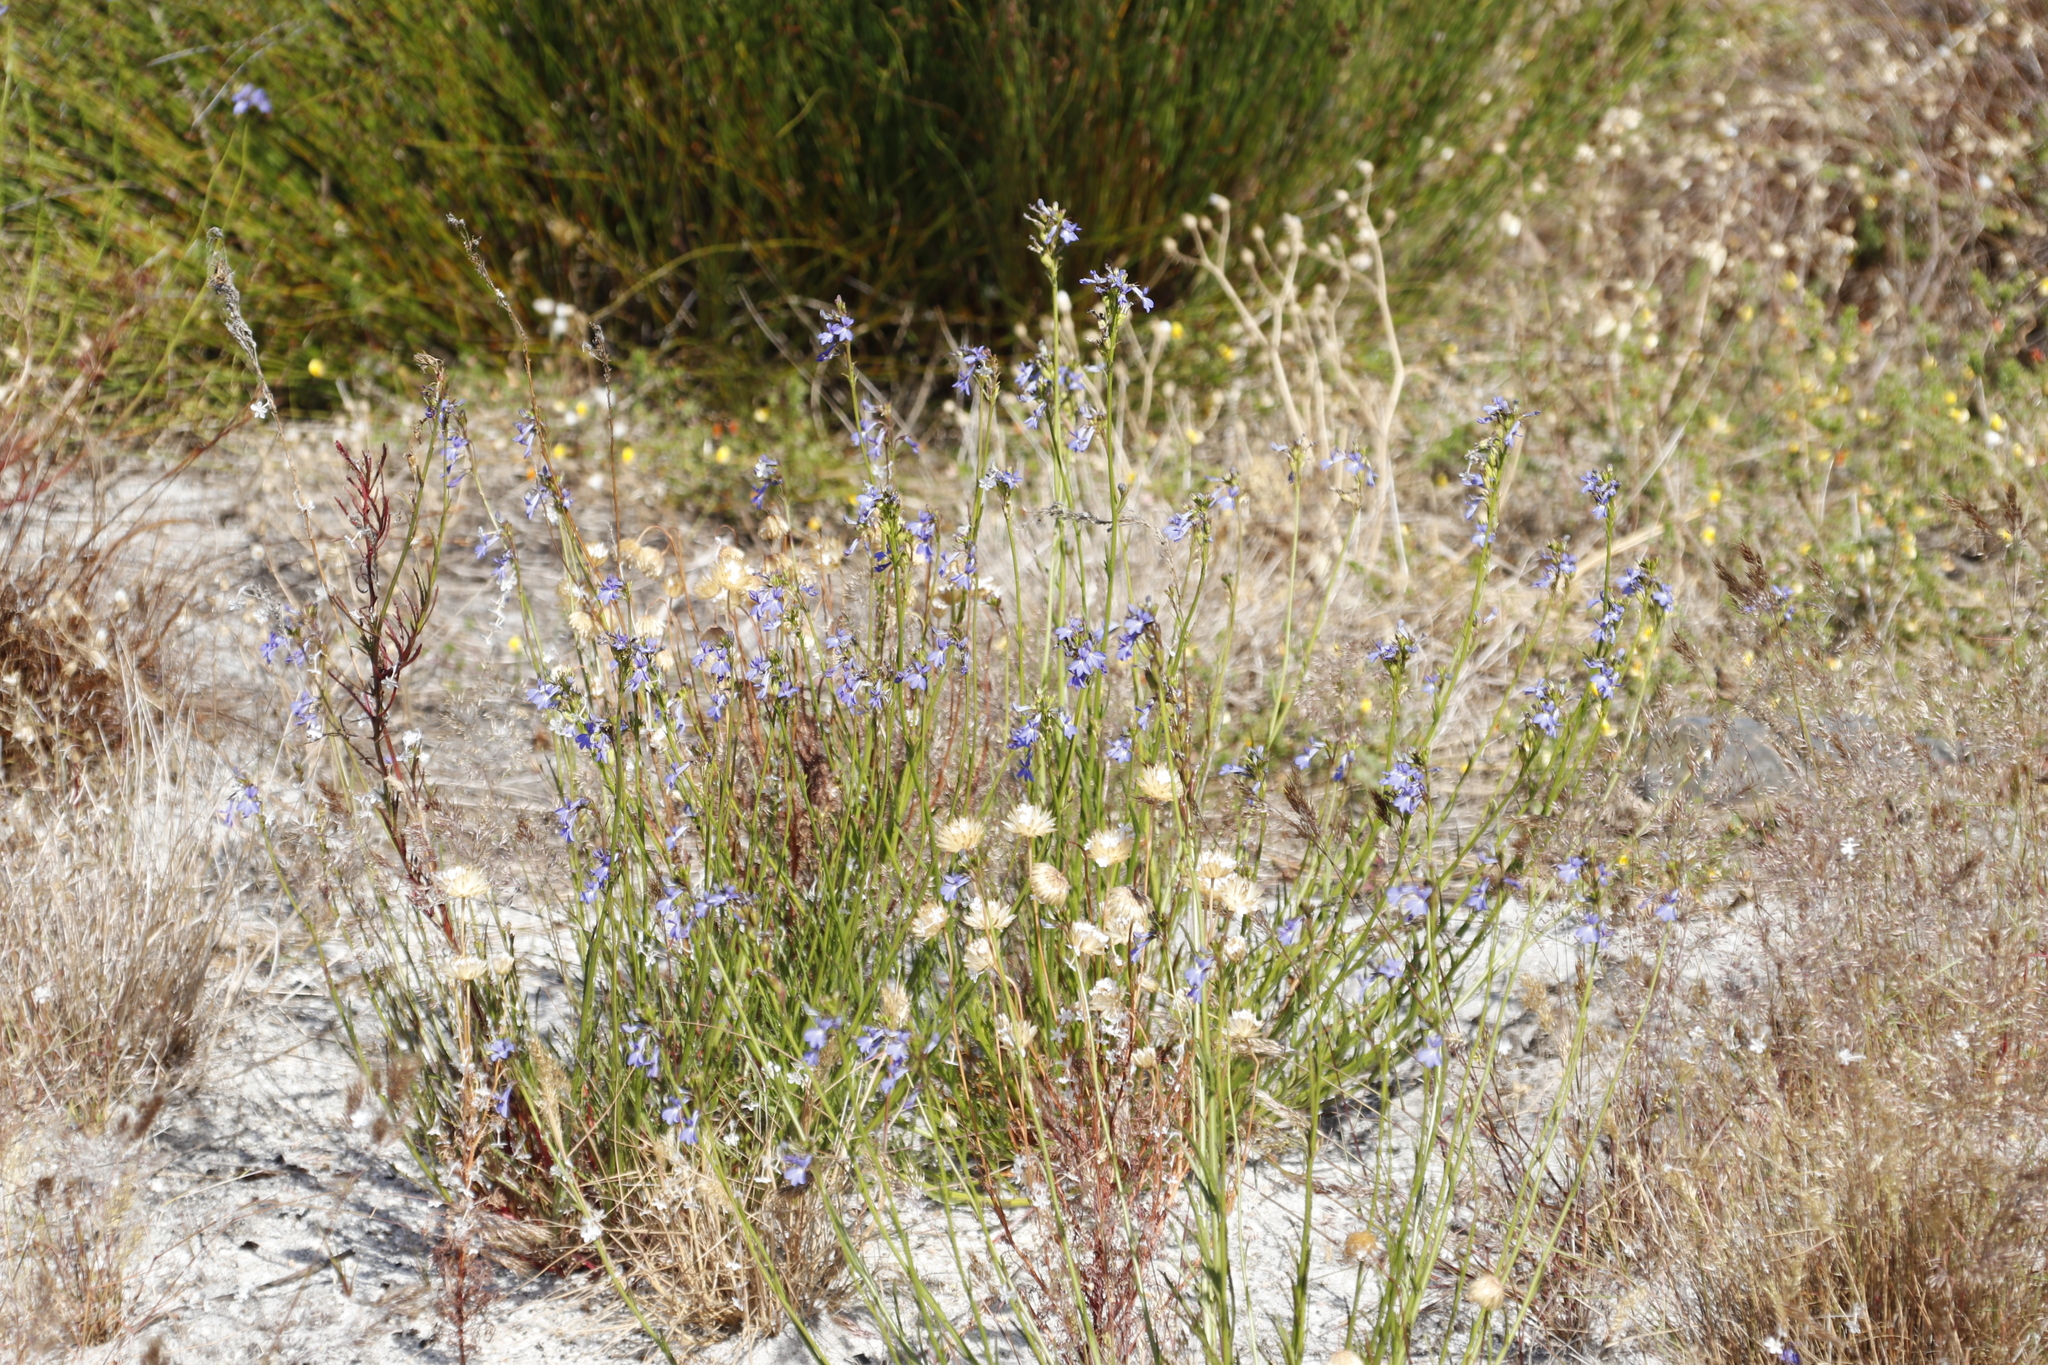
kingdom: Plantae
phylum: Tracheophyta
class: Magnoliopsida
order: Asterales
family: Campanulaceae
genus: Lobelia
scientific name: Lobelia comosa
